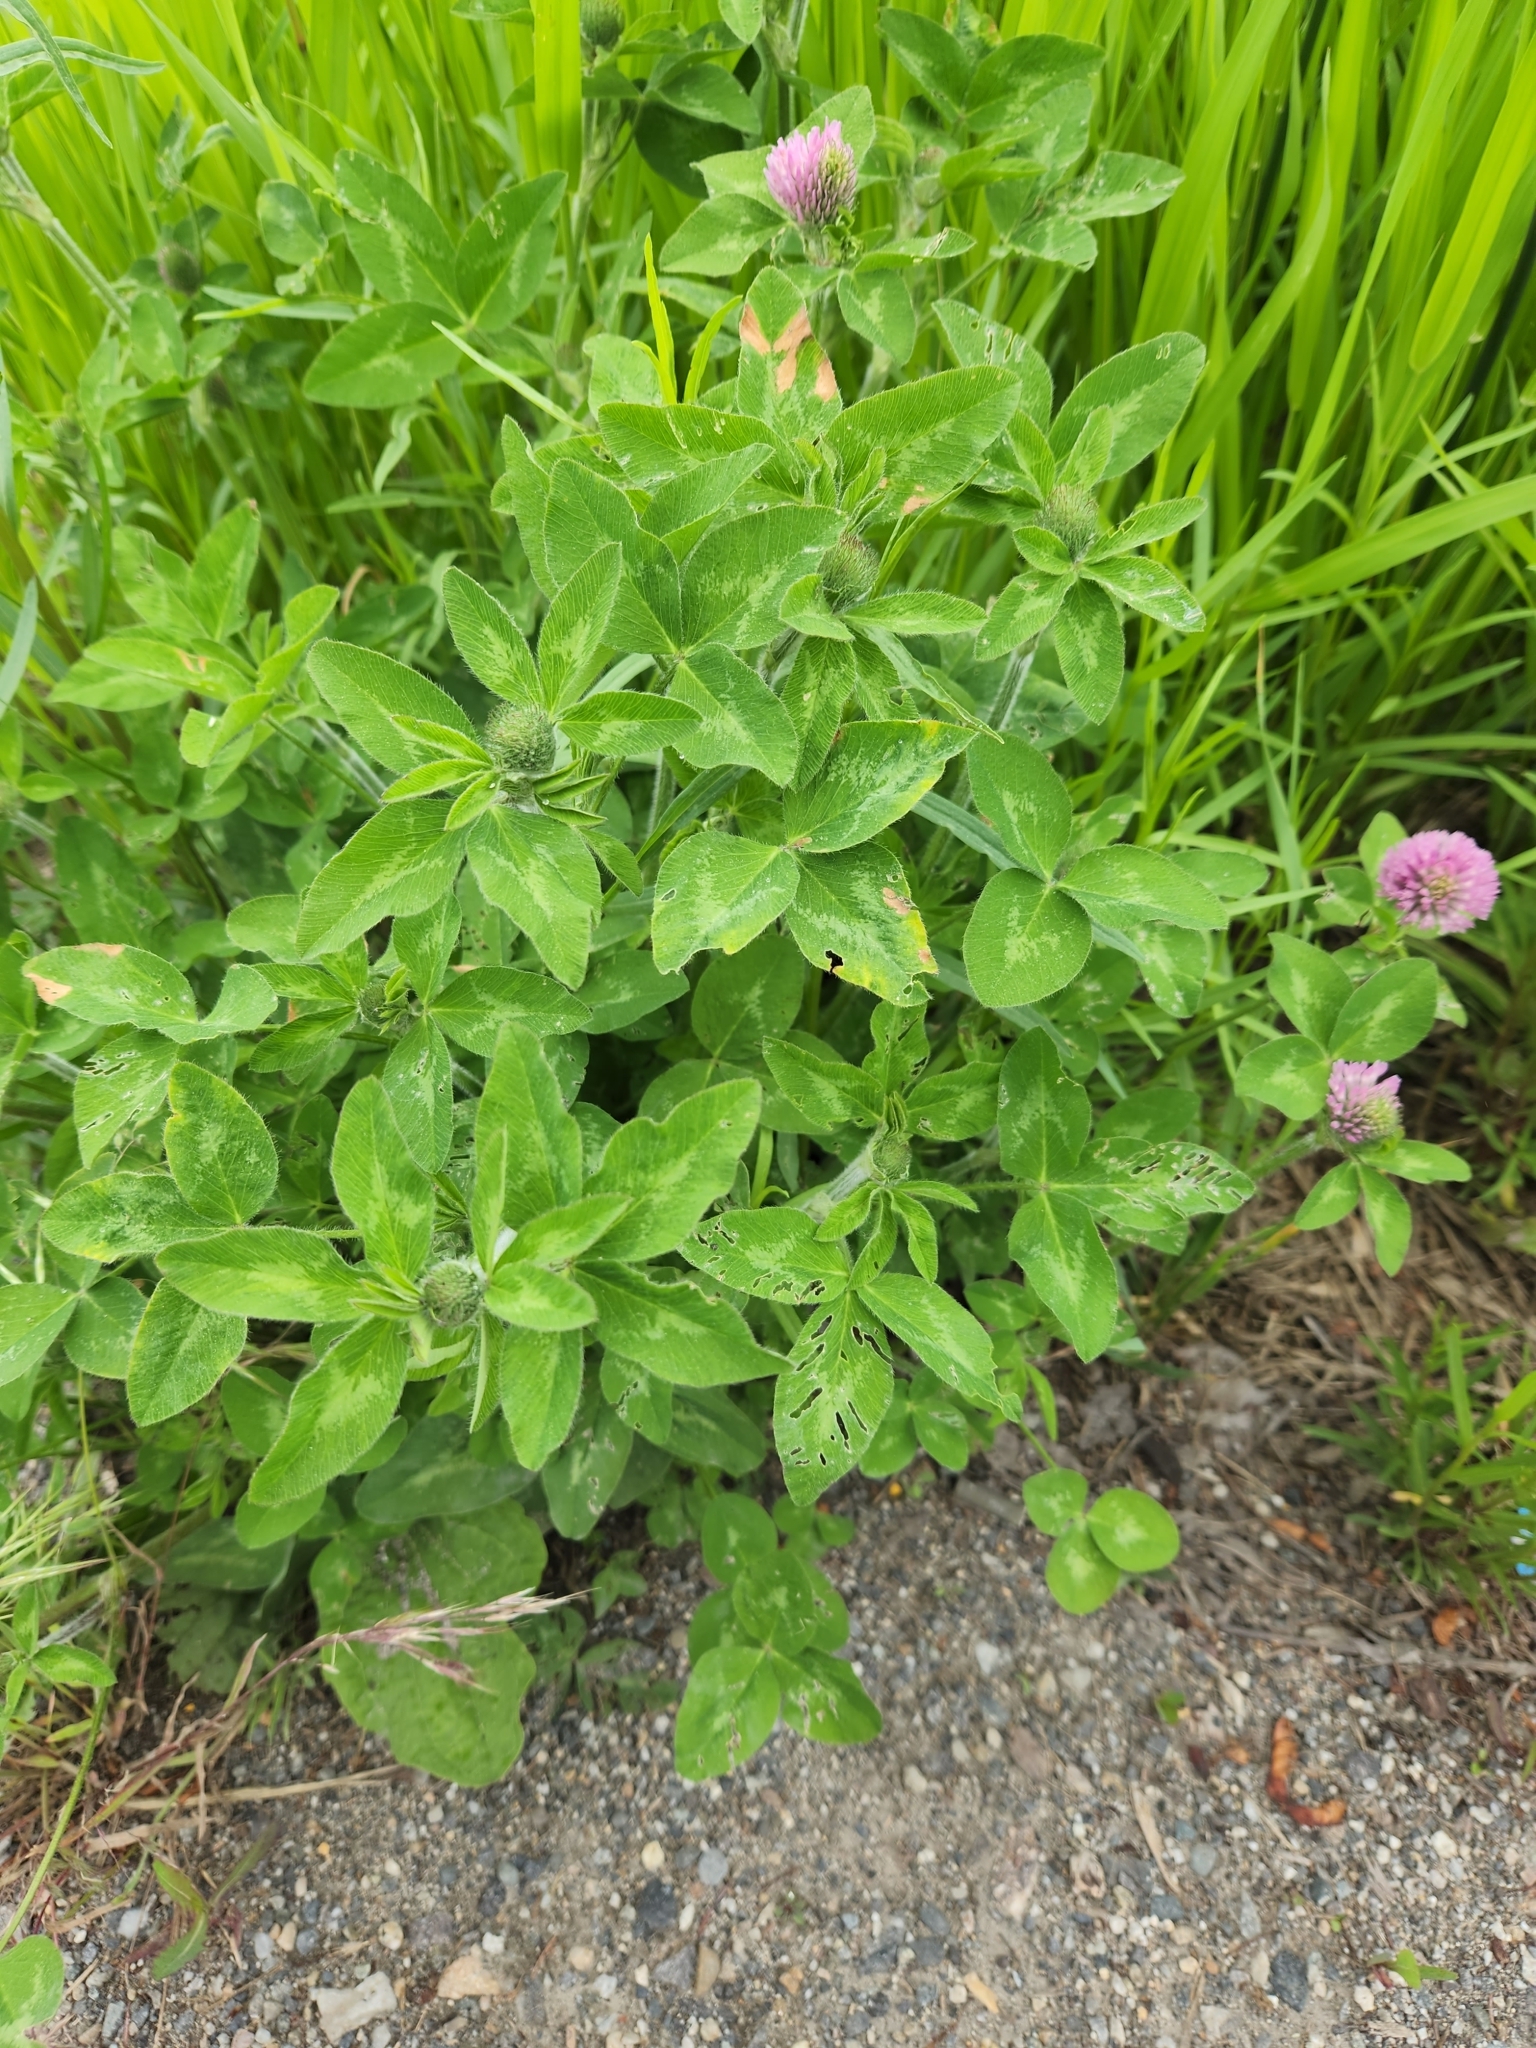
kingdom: Plantae
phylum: Tracheophyta
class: Magnoliopsida
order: Fabales
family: Fabaceae
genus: Trifolium
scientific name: Trifolium pratense
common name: Red clover
